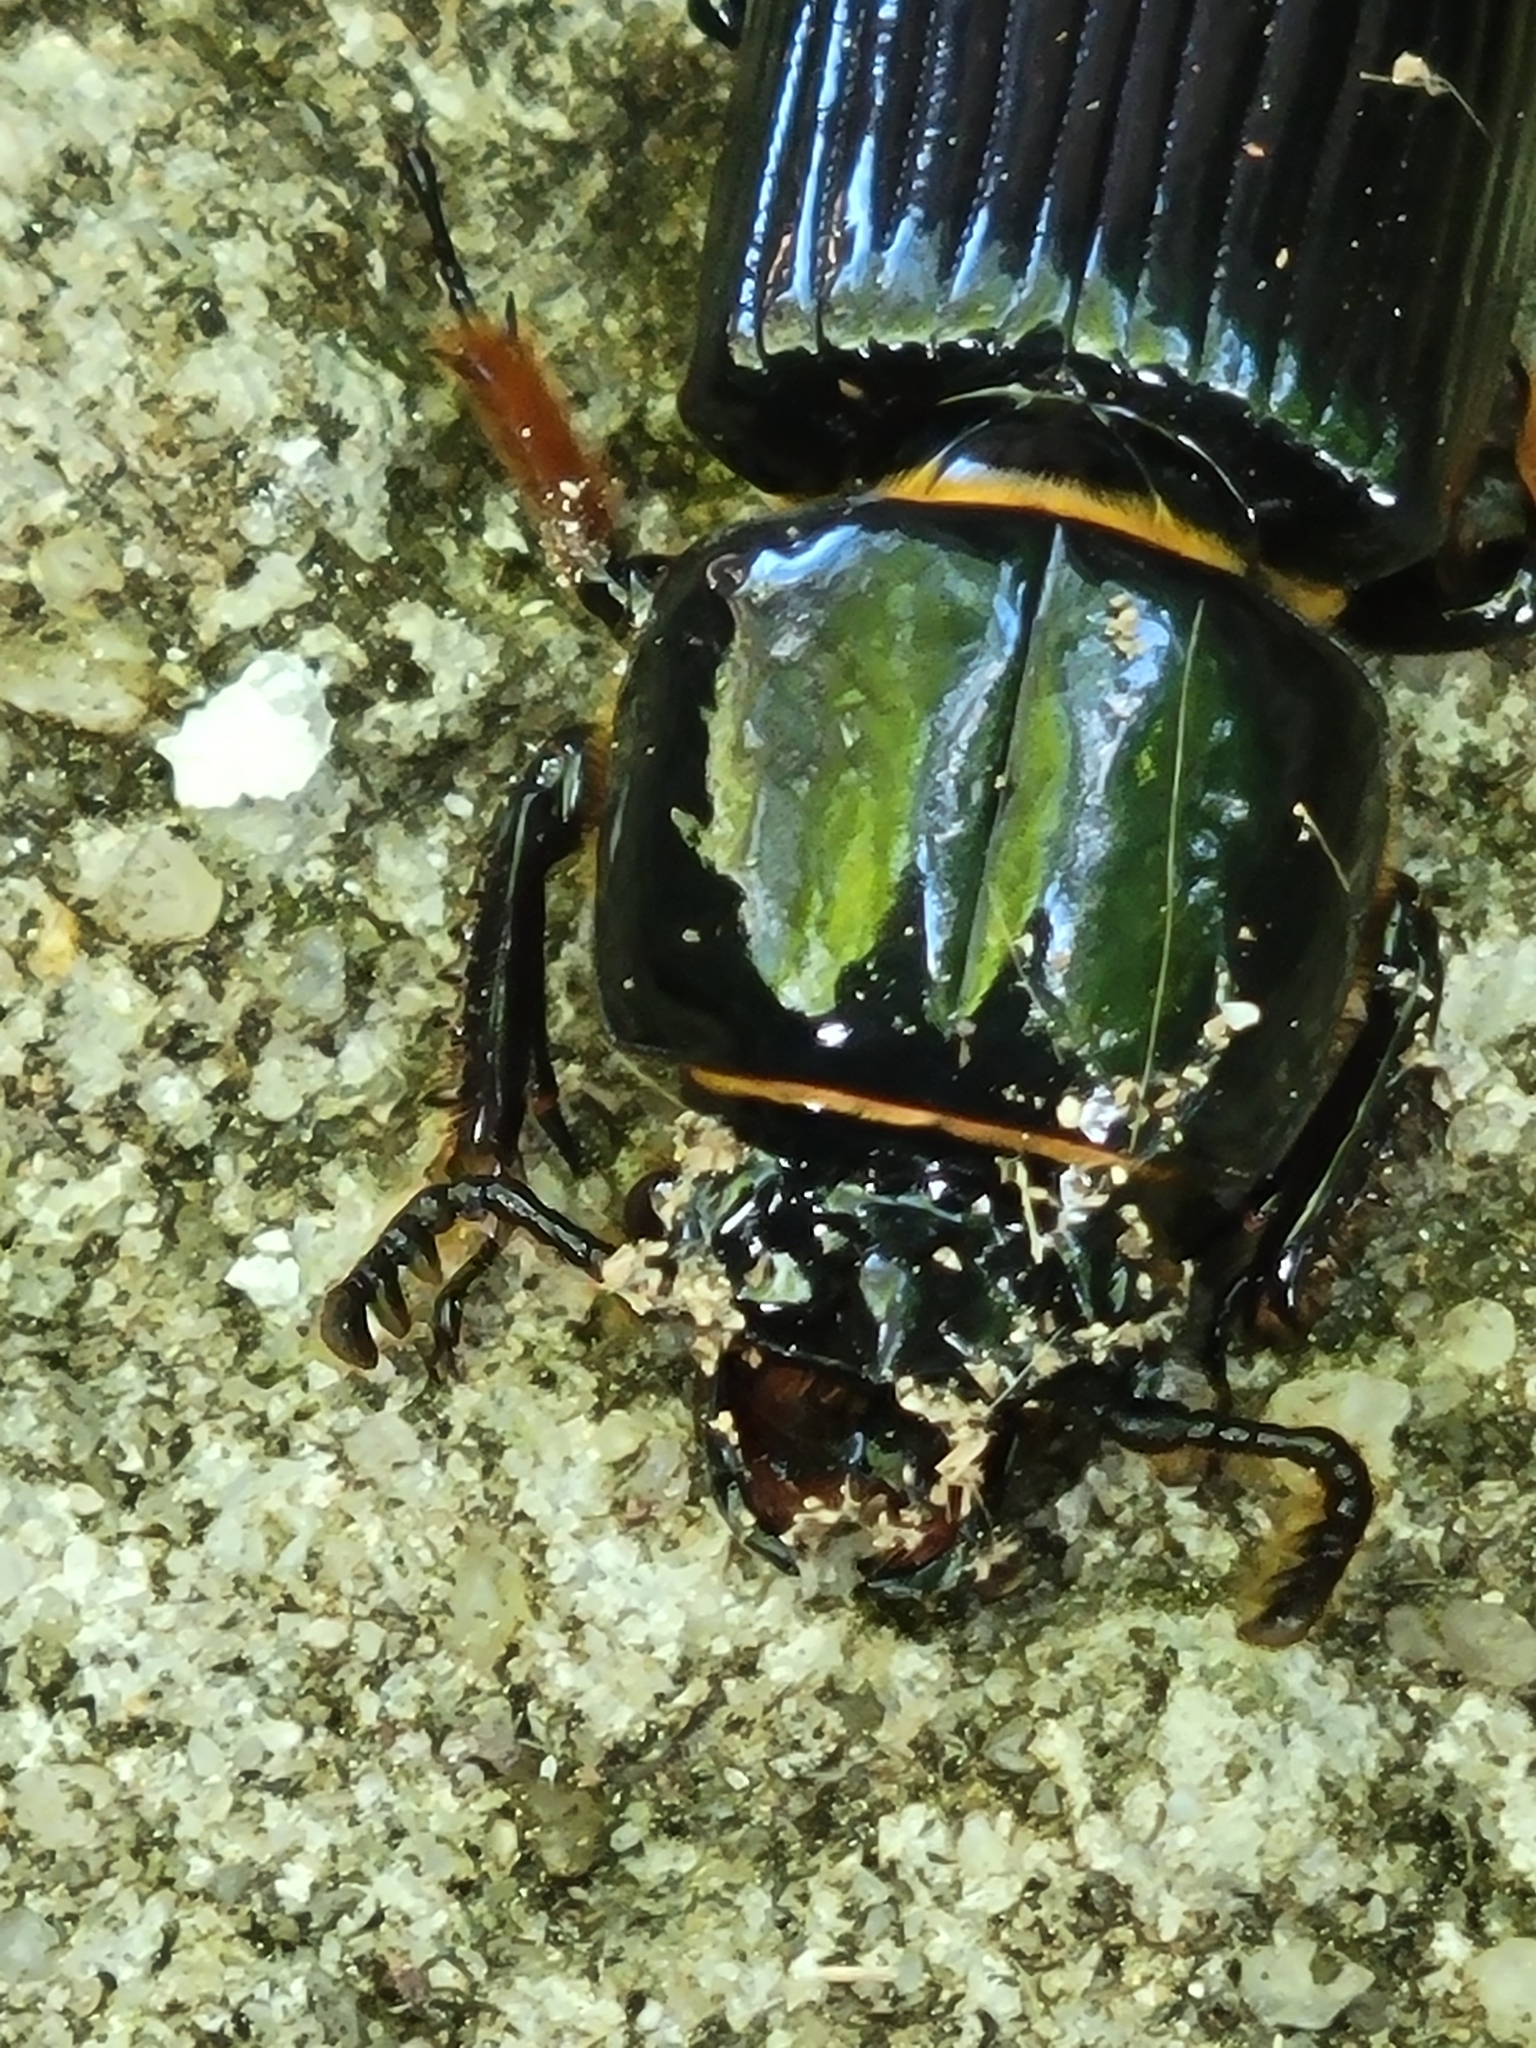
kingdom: Animalia
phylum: Arthropoda
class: Insecta
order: Coleoptera
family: Passalidae
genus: Odontotaenius
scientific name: Odontotaenius disjunctus
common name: Patent leather beetle
